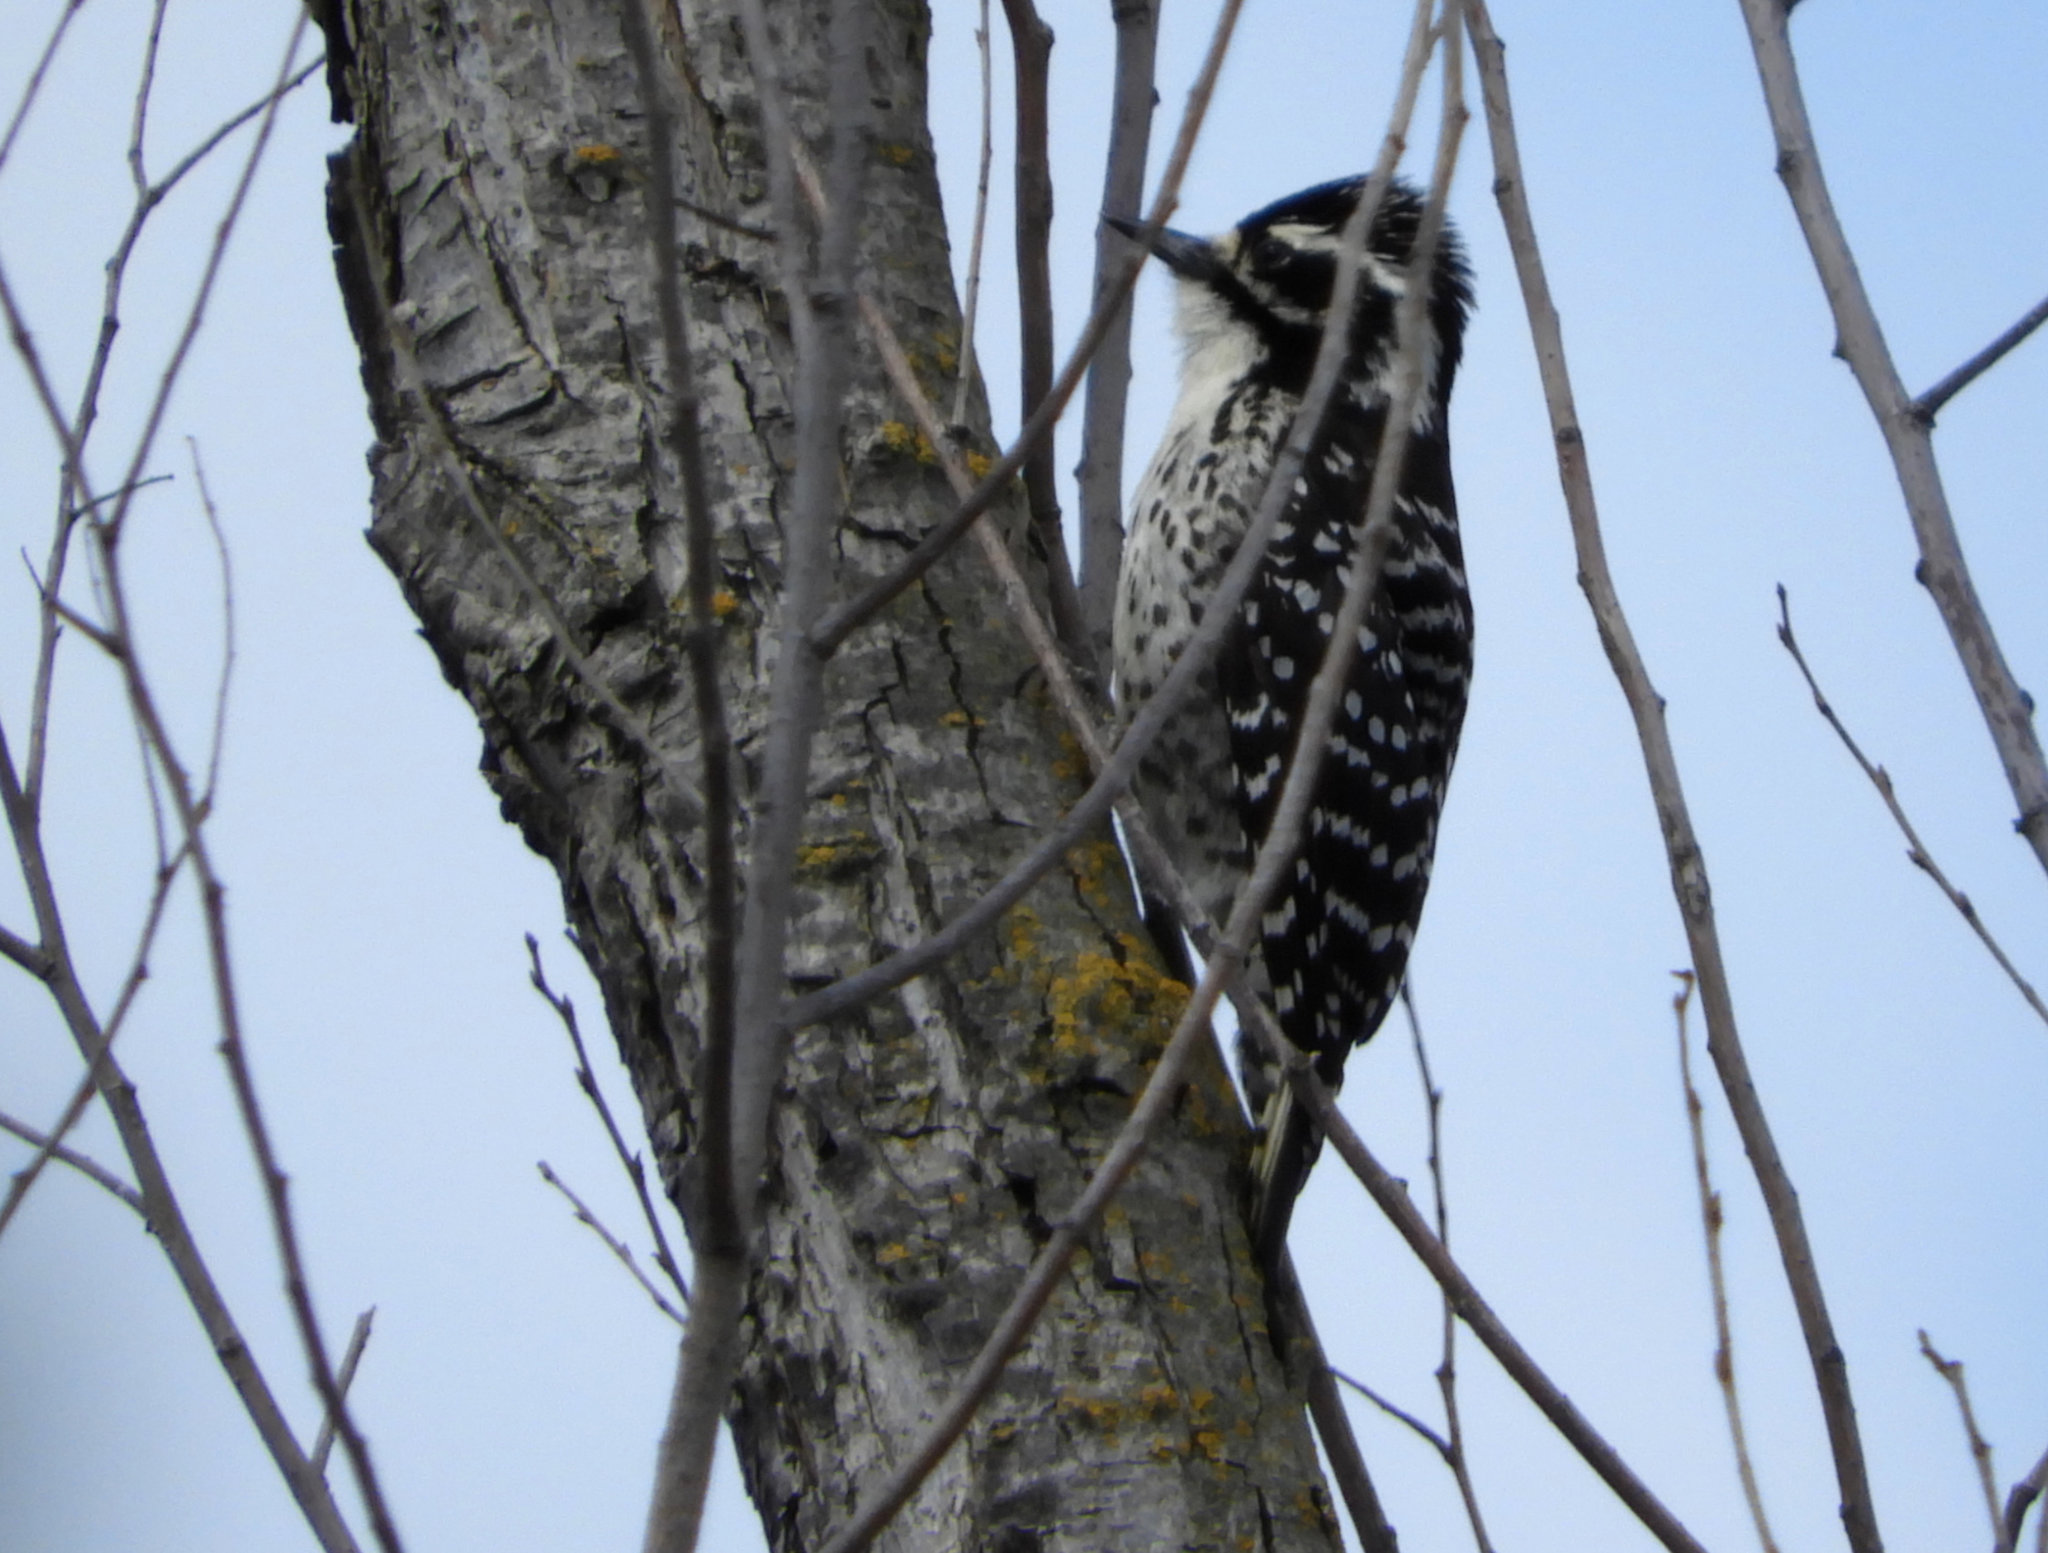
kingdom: Animalia
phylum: Chordata
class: Aves
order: Piciformes
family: Picidae
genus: Dryobates
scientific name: Dryobates nuttallii
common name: Nuttall's woodpecker
